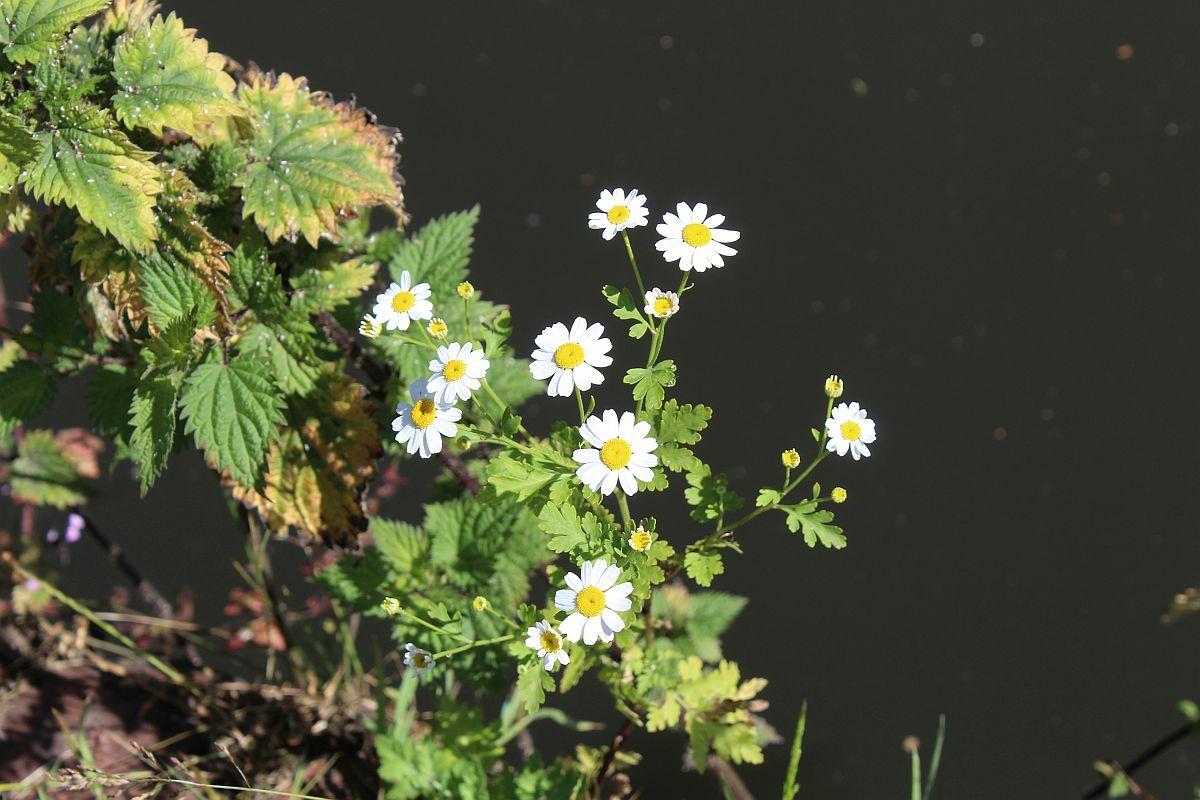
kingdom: Plantae
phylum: Tracheophyta
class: Magnoliopsida
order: Asterales
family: Asteraceae
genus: Tanacetum
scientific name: Tanacetum parthenium
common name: Feverfew
